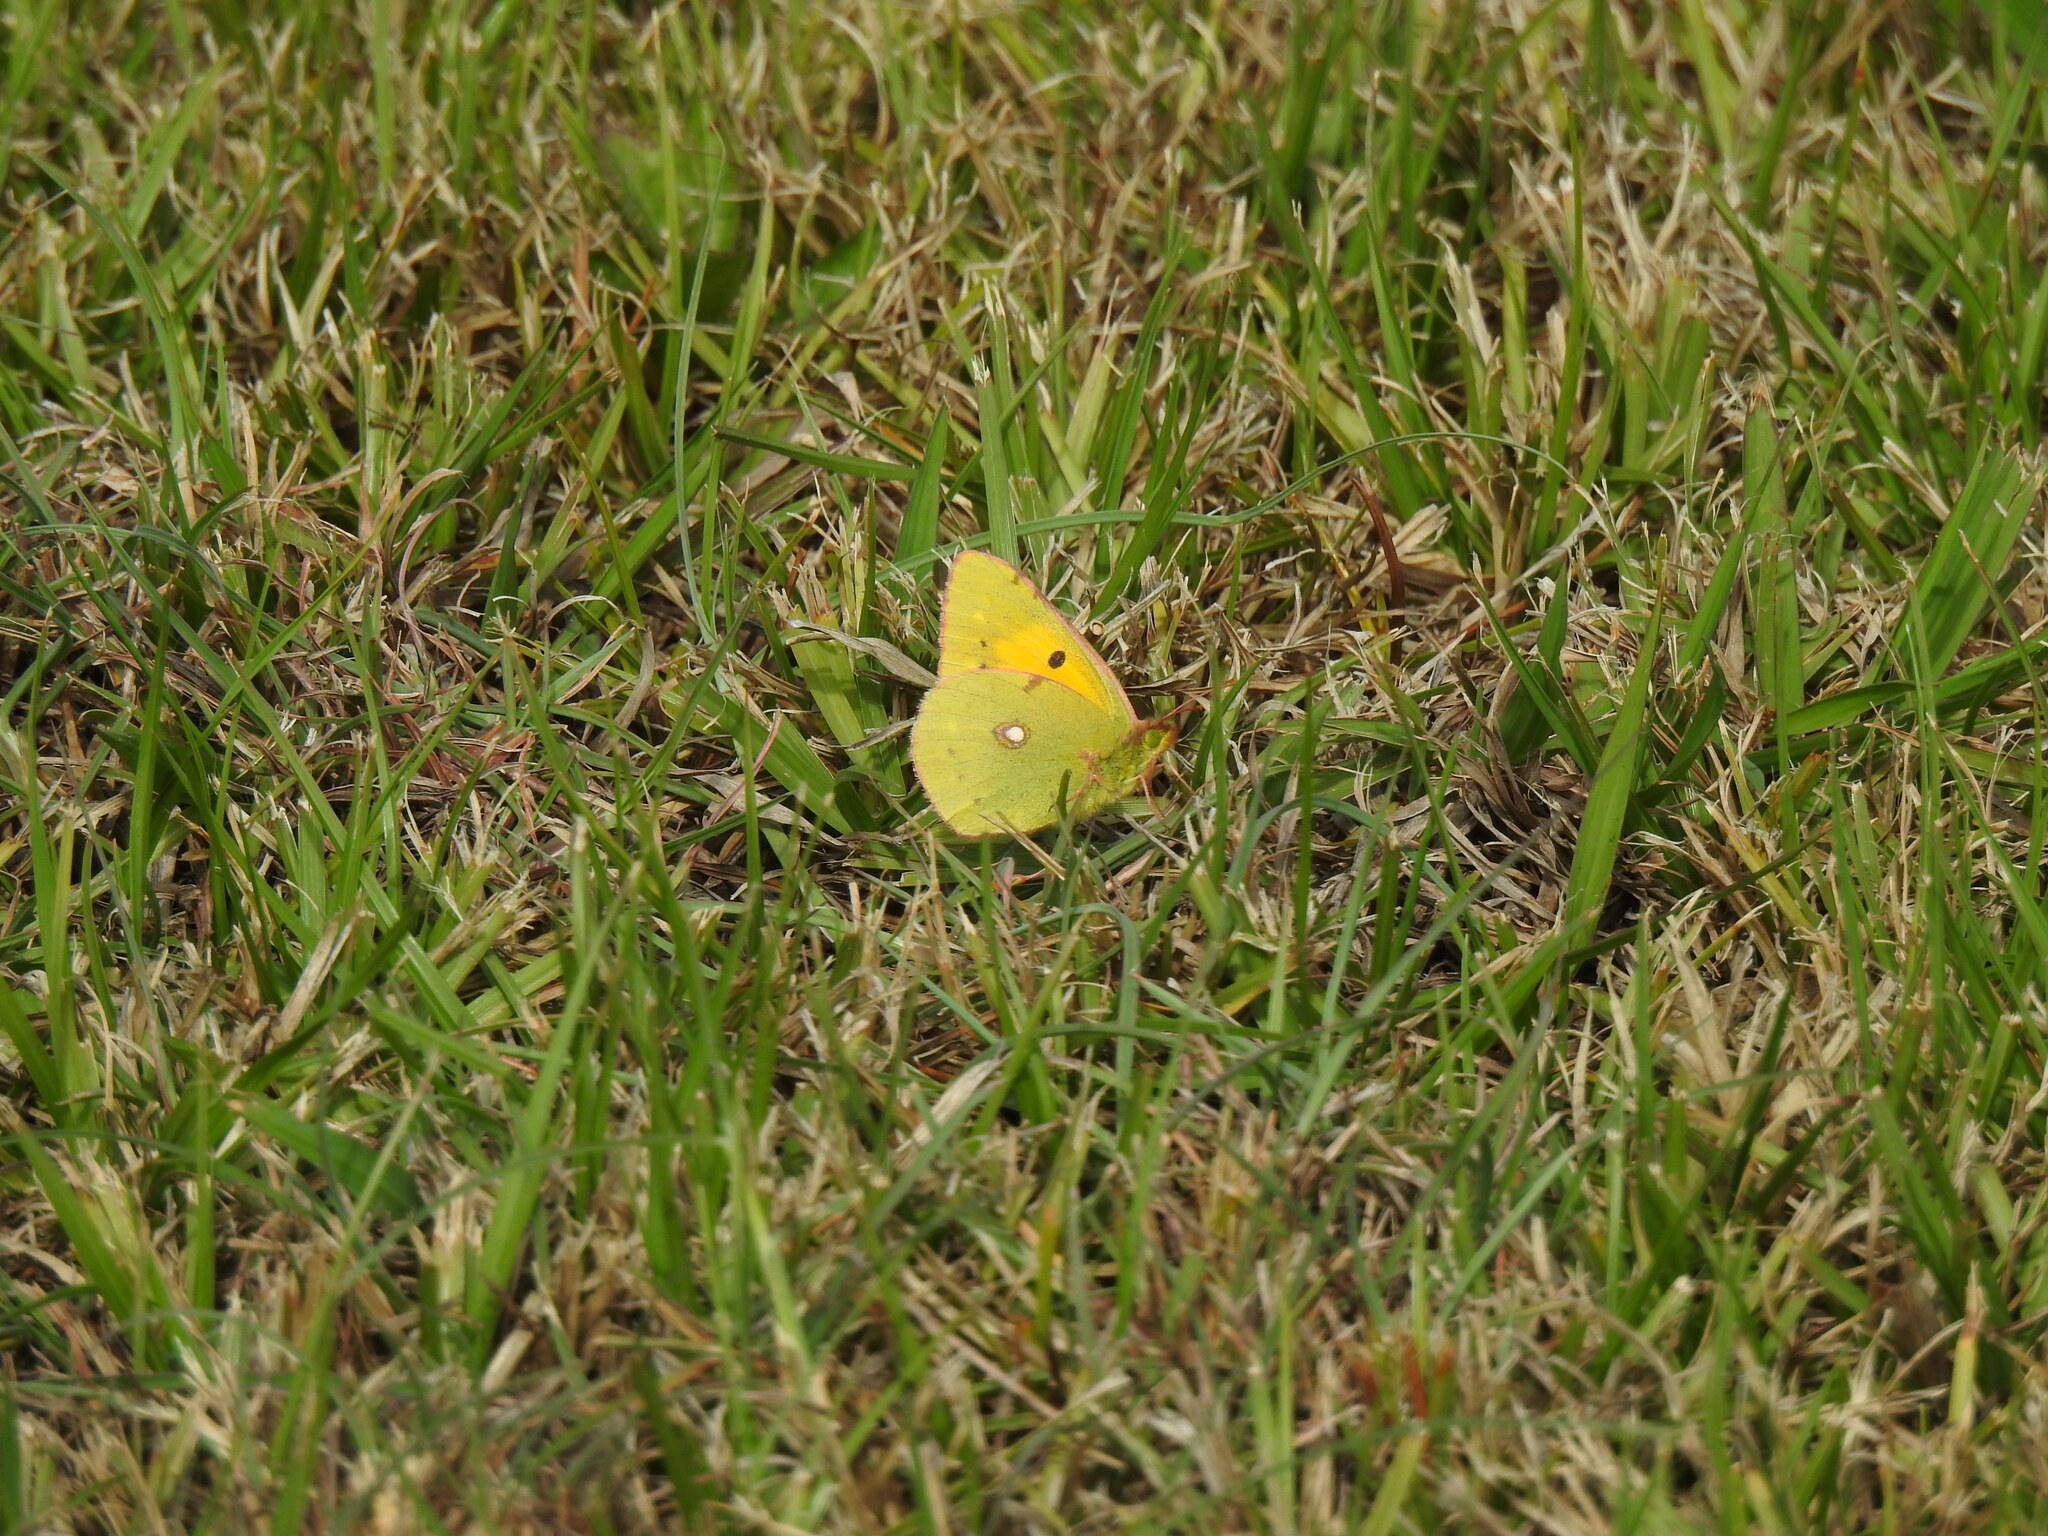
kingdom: Animalia
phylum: Arthropoda
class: Insecta
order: Lepidoptera
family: Pieridae
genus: Colias
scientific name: Colias croceus
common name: Clouded yellow
